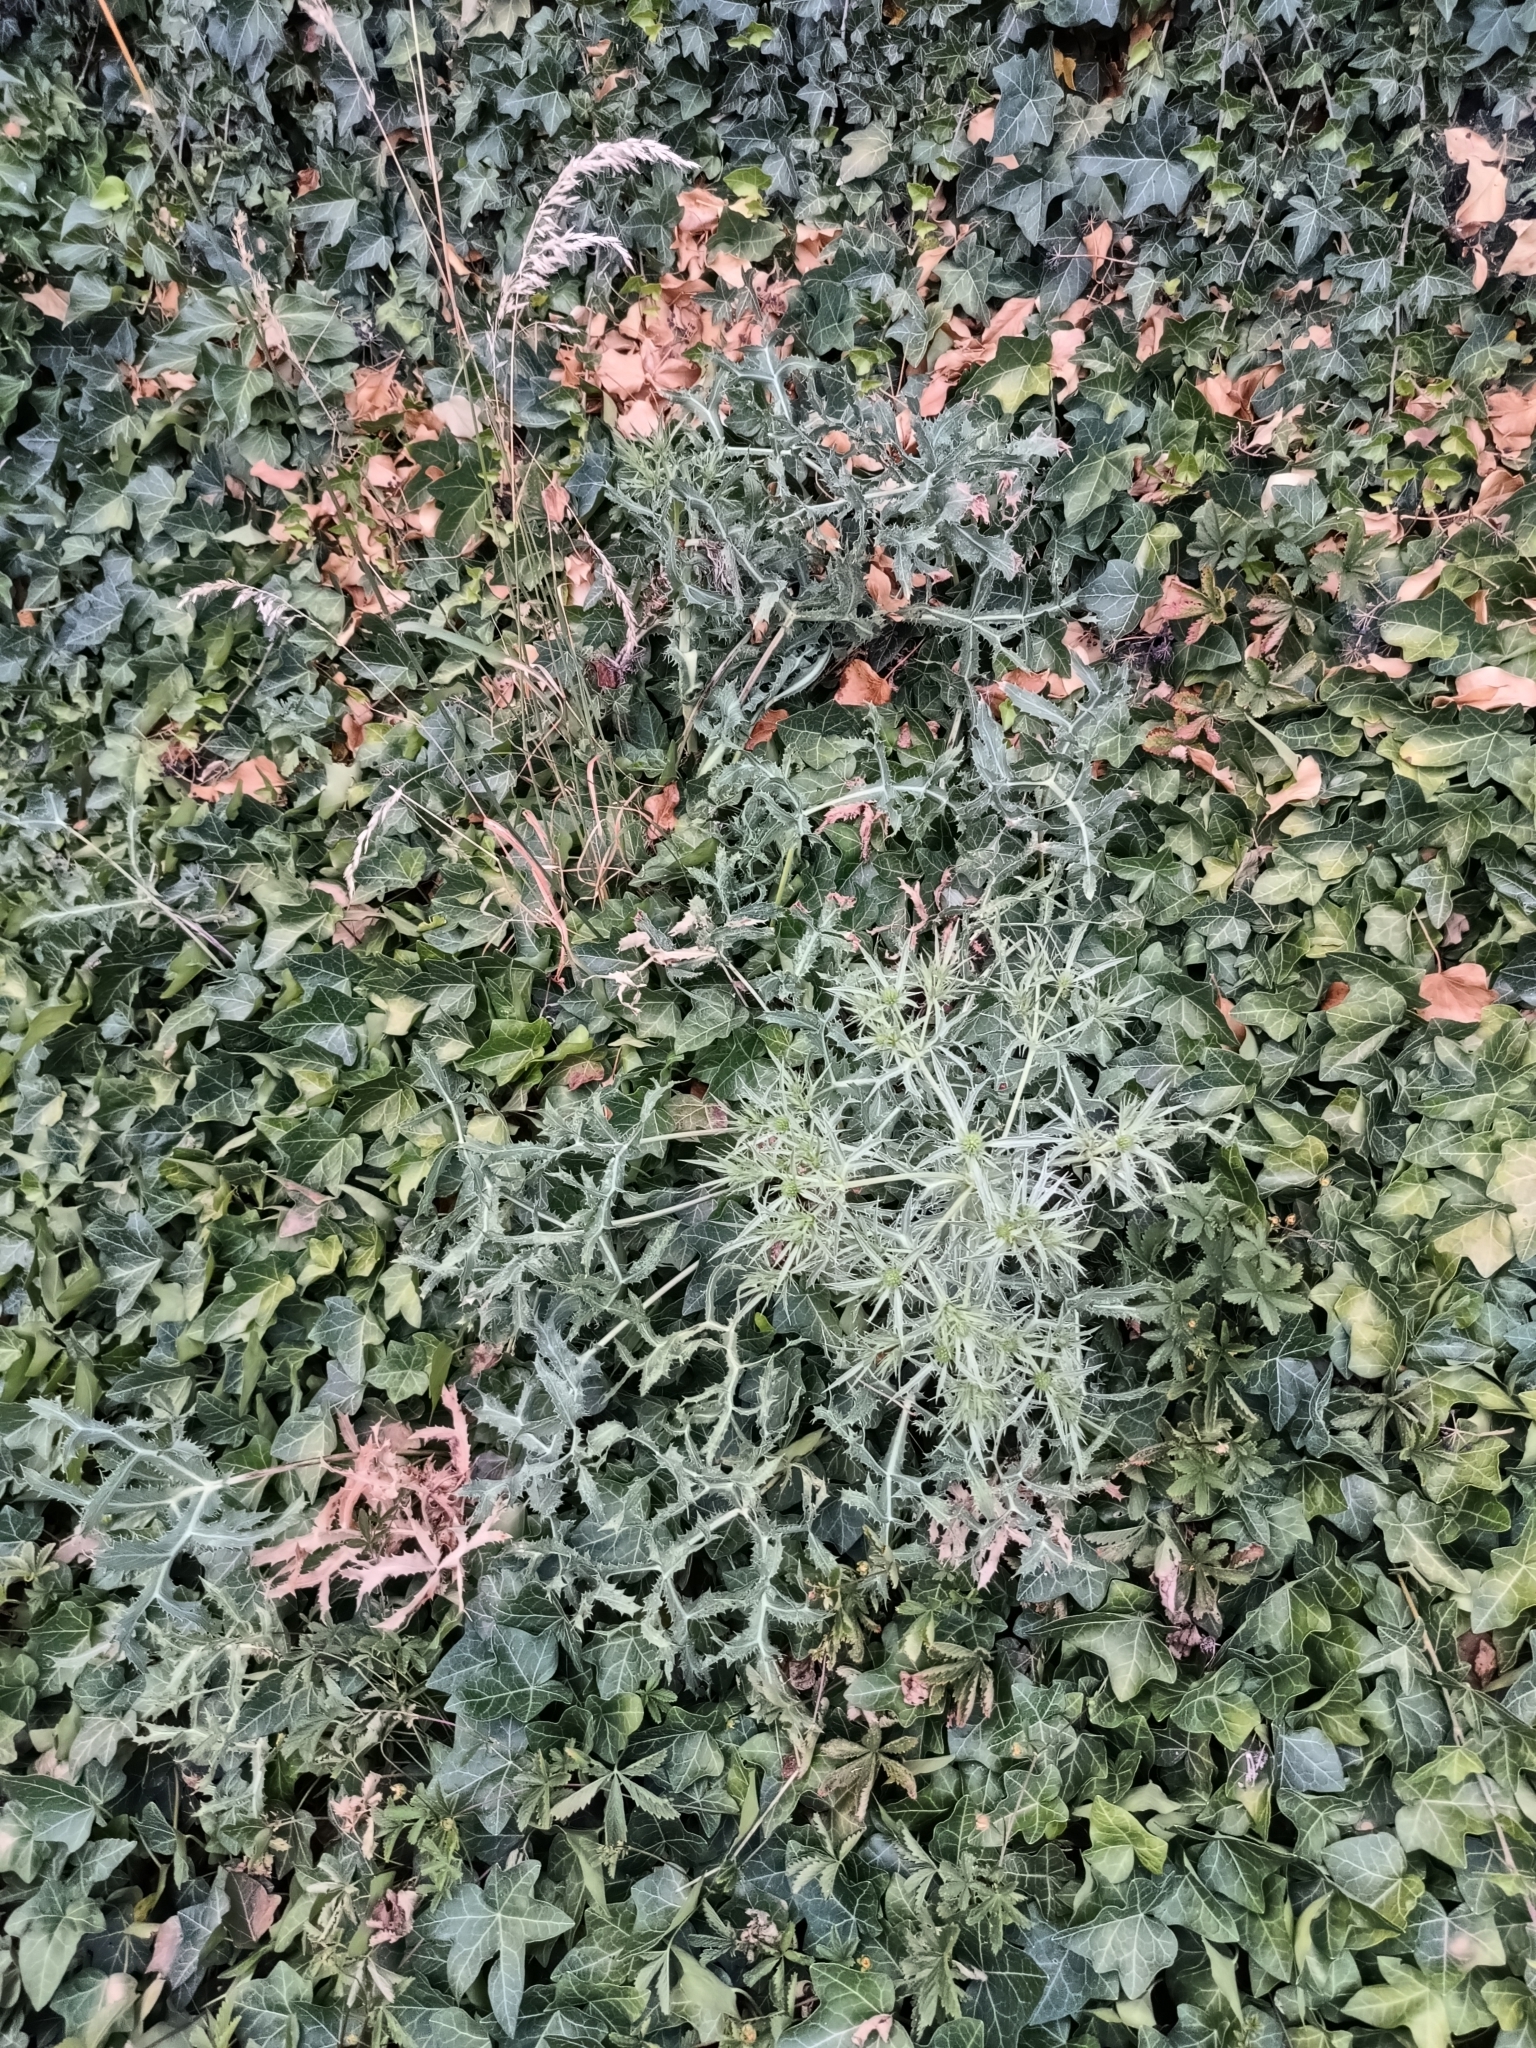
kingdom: Plantae
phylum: Tracheophyta
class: Magnoliopsida
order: Apiales
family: Apiaceae
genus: Eryngium
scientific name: Eryngium campestre
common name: Field eryngo
